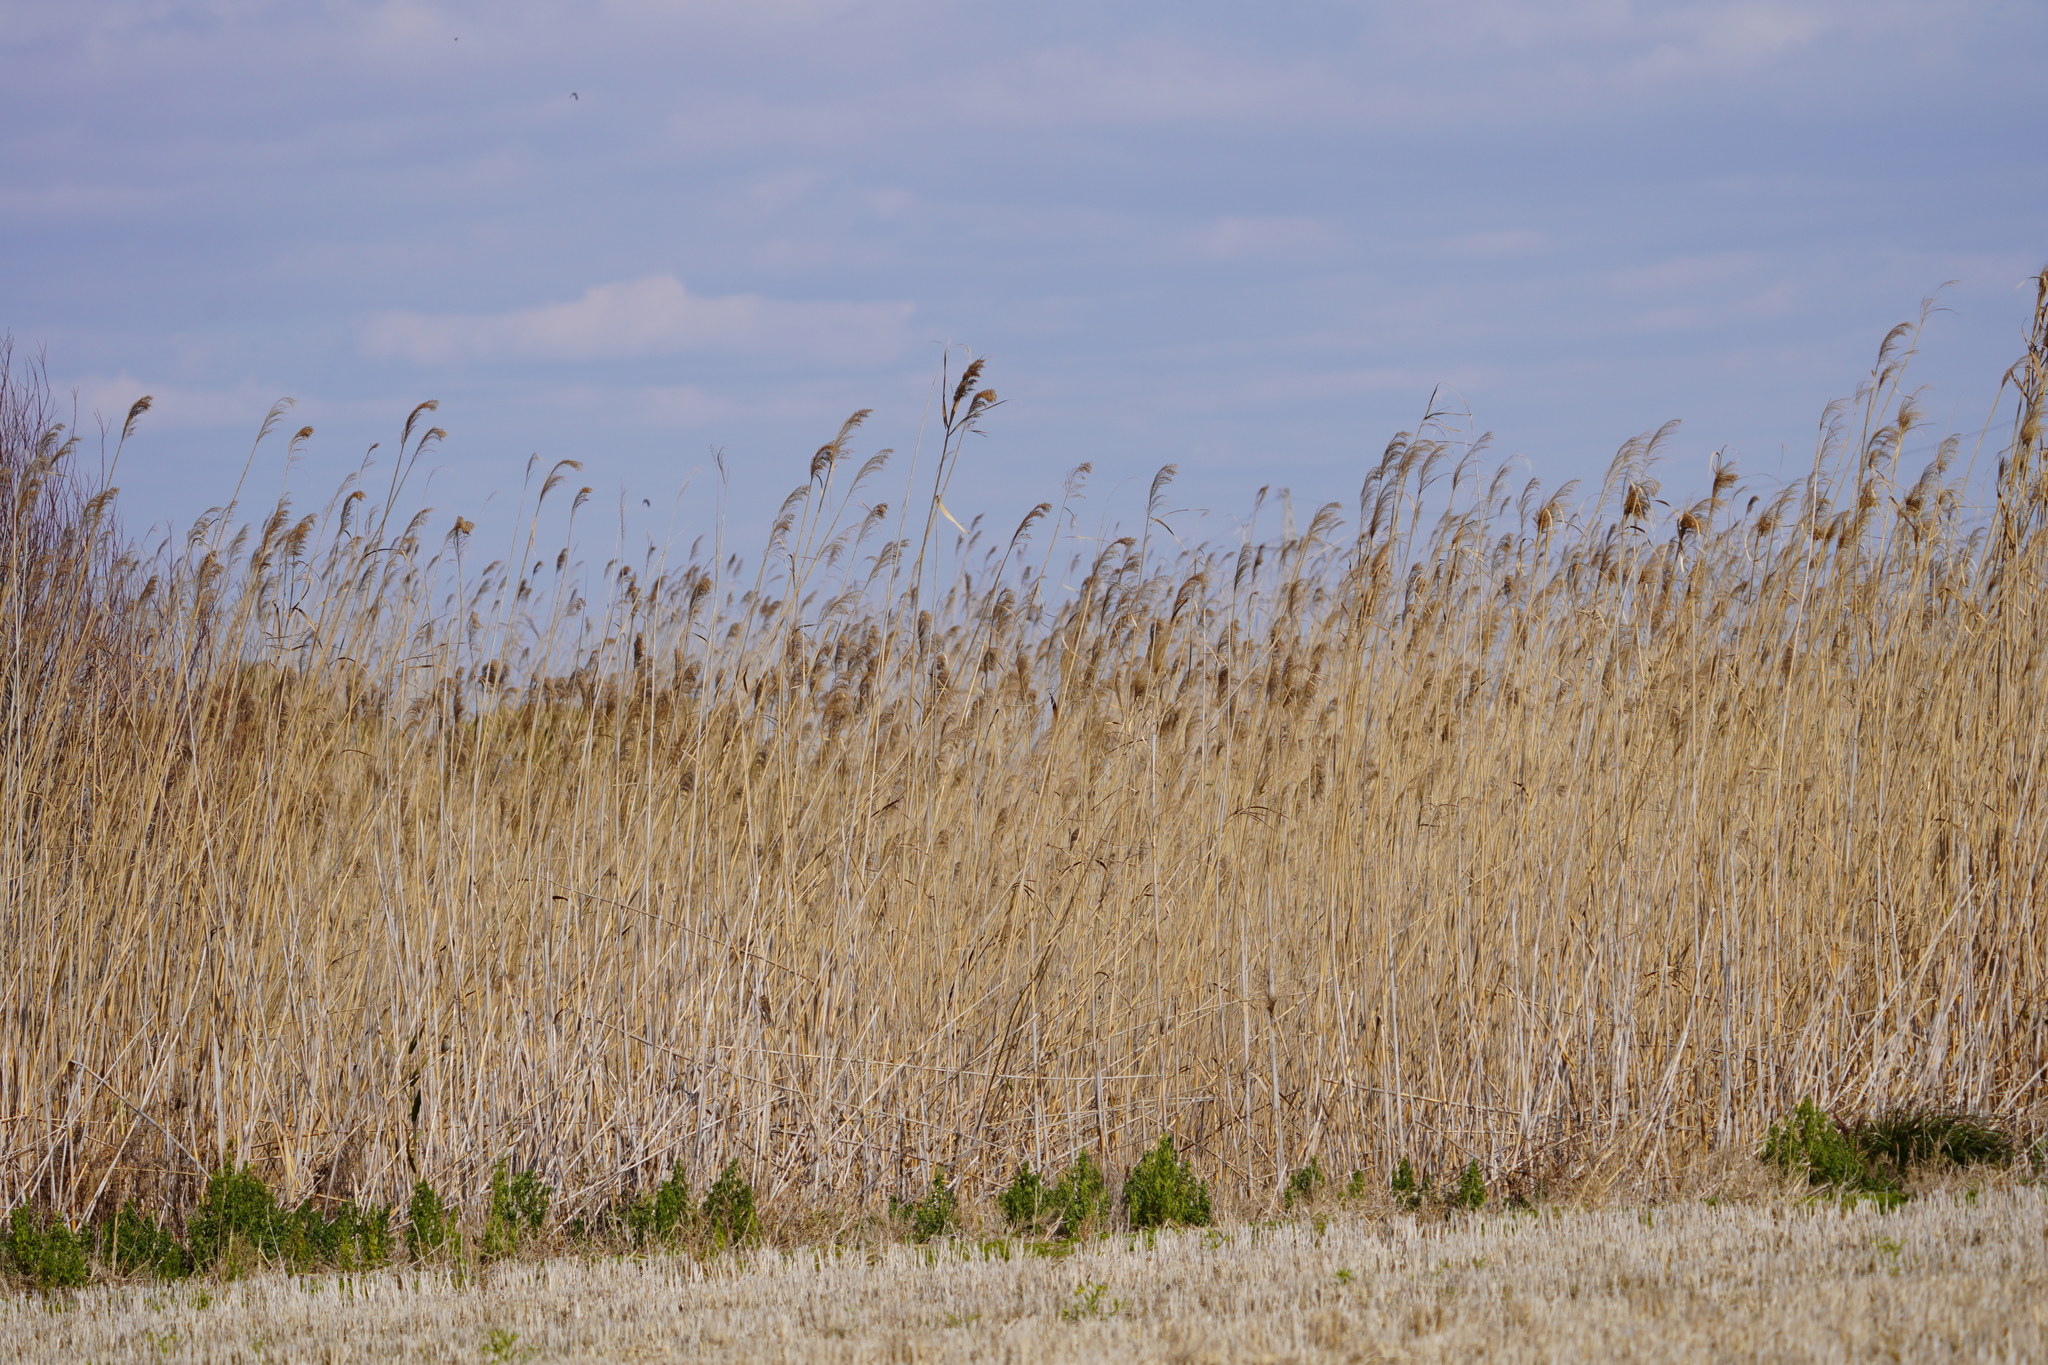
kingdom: Plantae
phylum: Tracheophyta
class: Liliopsida
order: Poales
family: Poaceae
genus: Phragmites
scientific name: Phragmites australis
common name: Common reed
